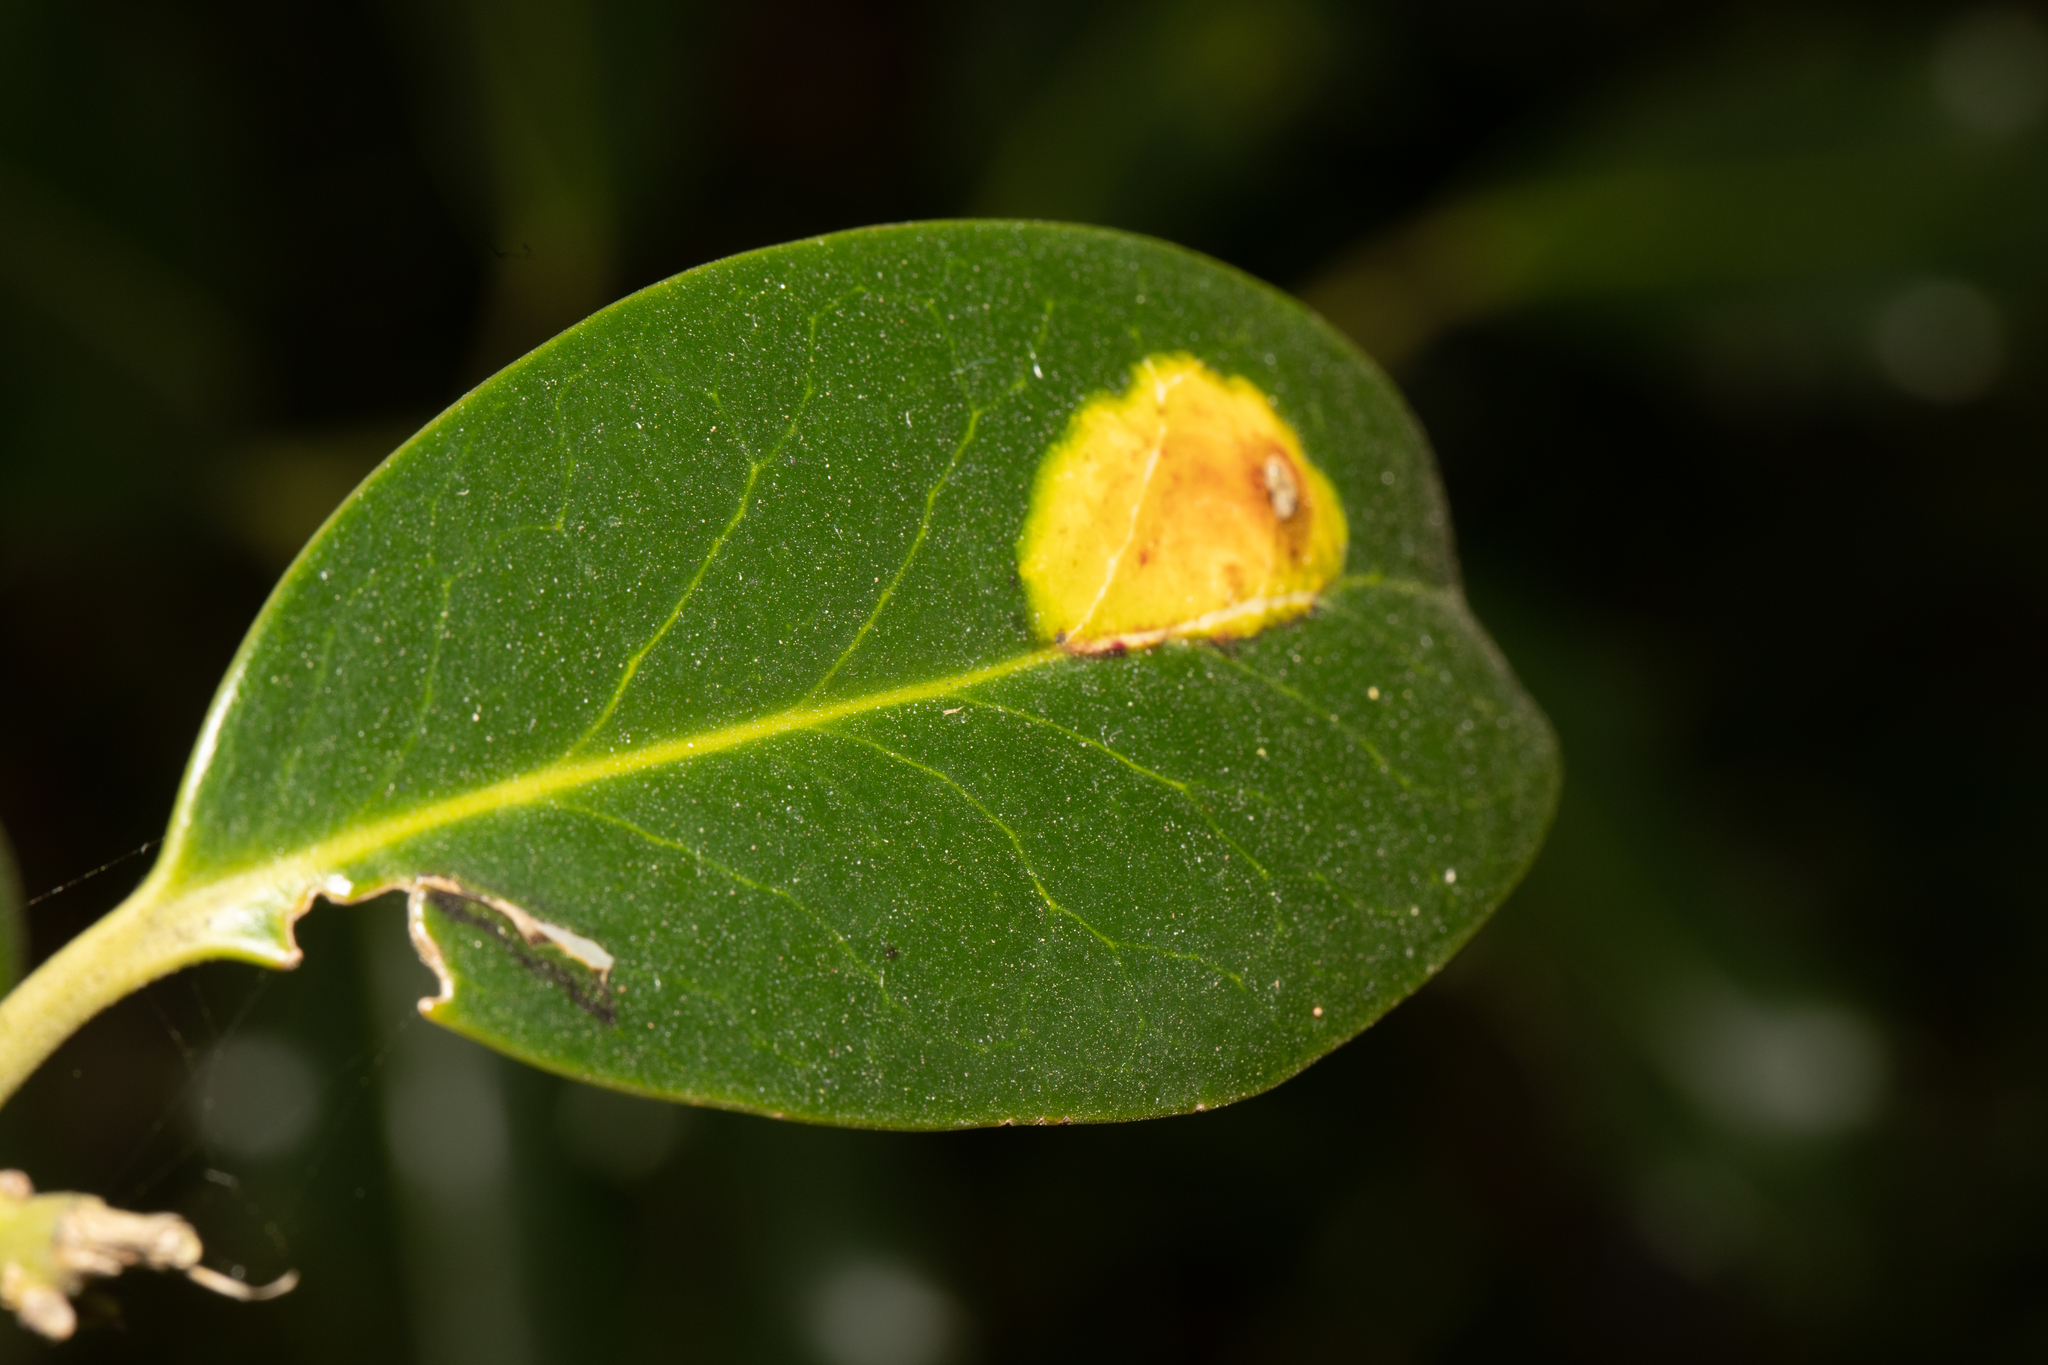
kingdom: Animalia
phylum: Arthropoda
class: Insecta
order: Diptera
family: Agromyzidae
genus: Phytomyza
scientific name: Phytomyza ilicis
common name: Holly leafminer
